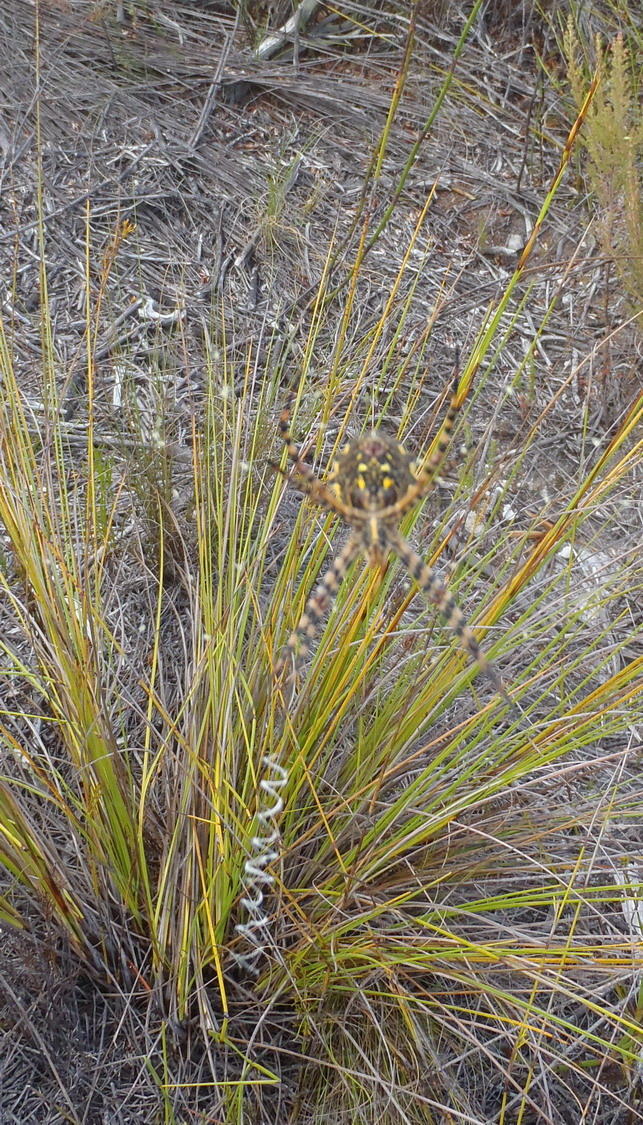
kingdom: Animalia
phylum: Arthropoda
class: Arachnida
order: Araneae
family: Araneidae
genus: Argiope
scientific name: Argiope australis
